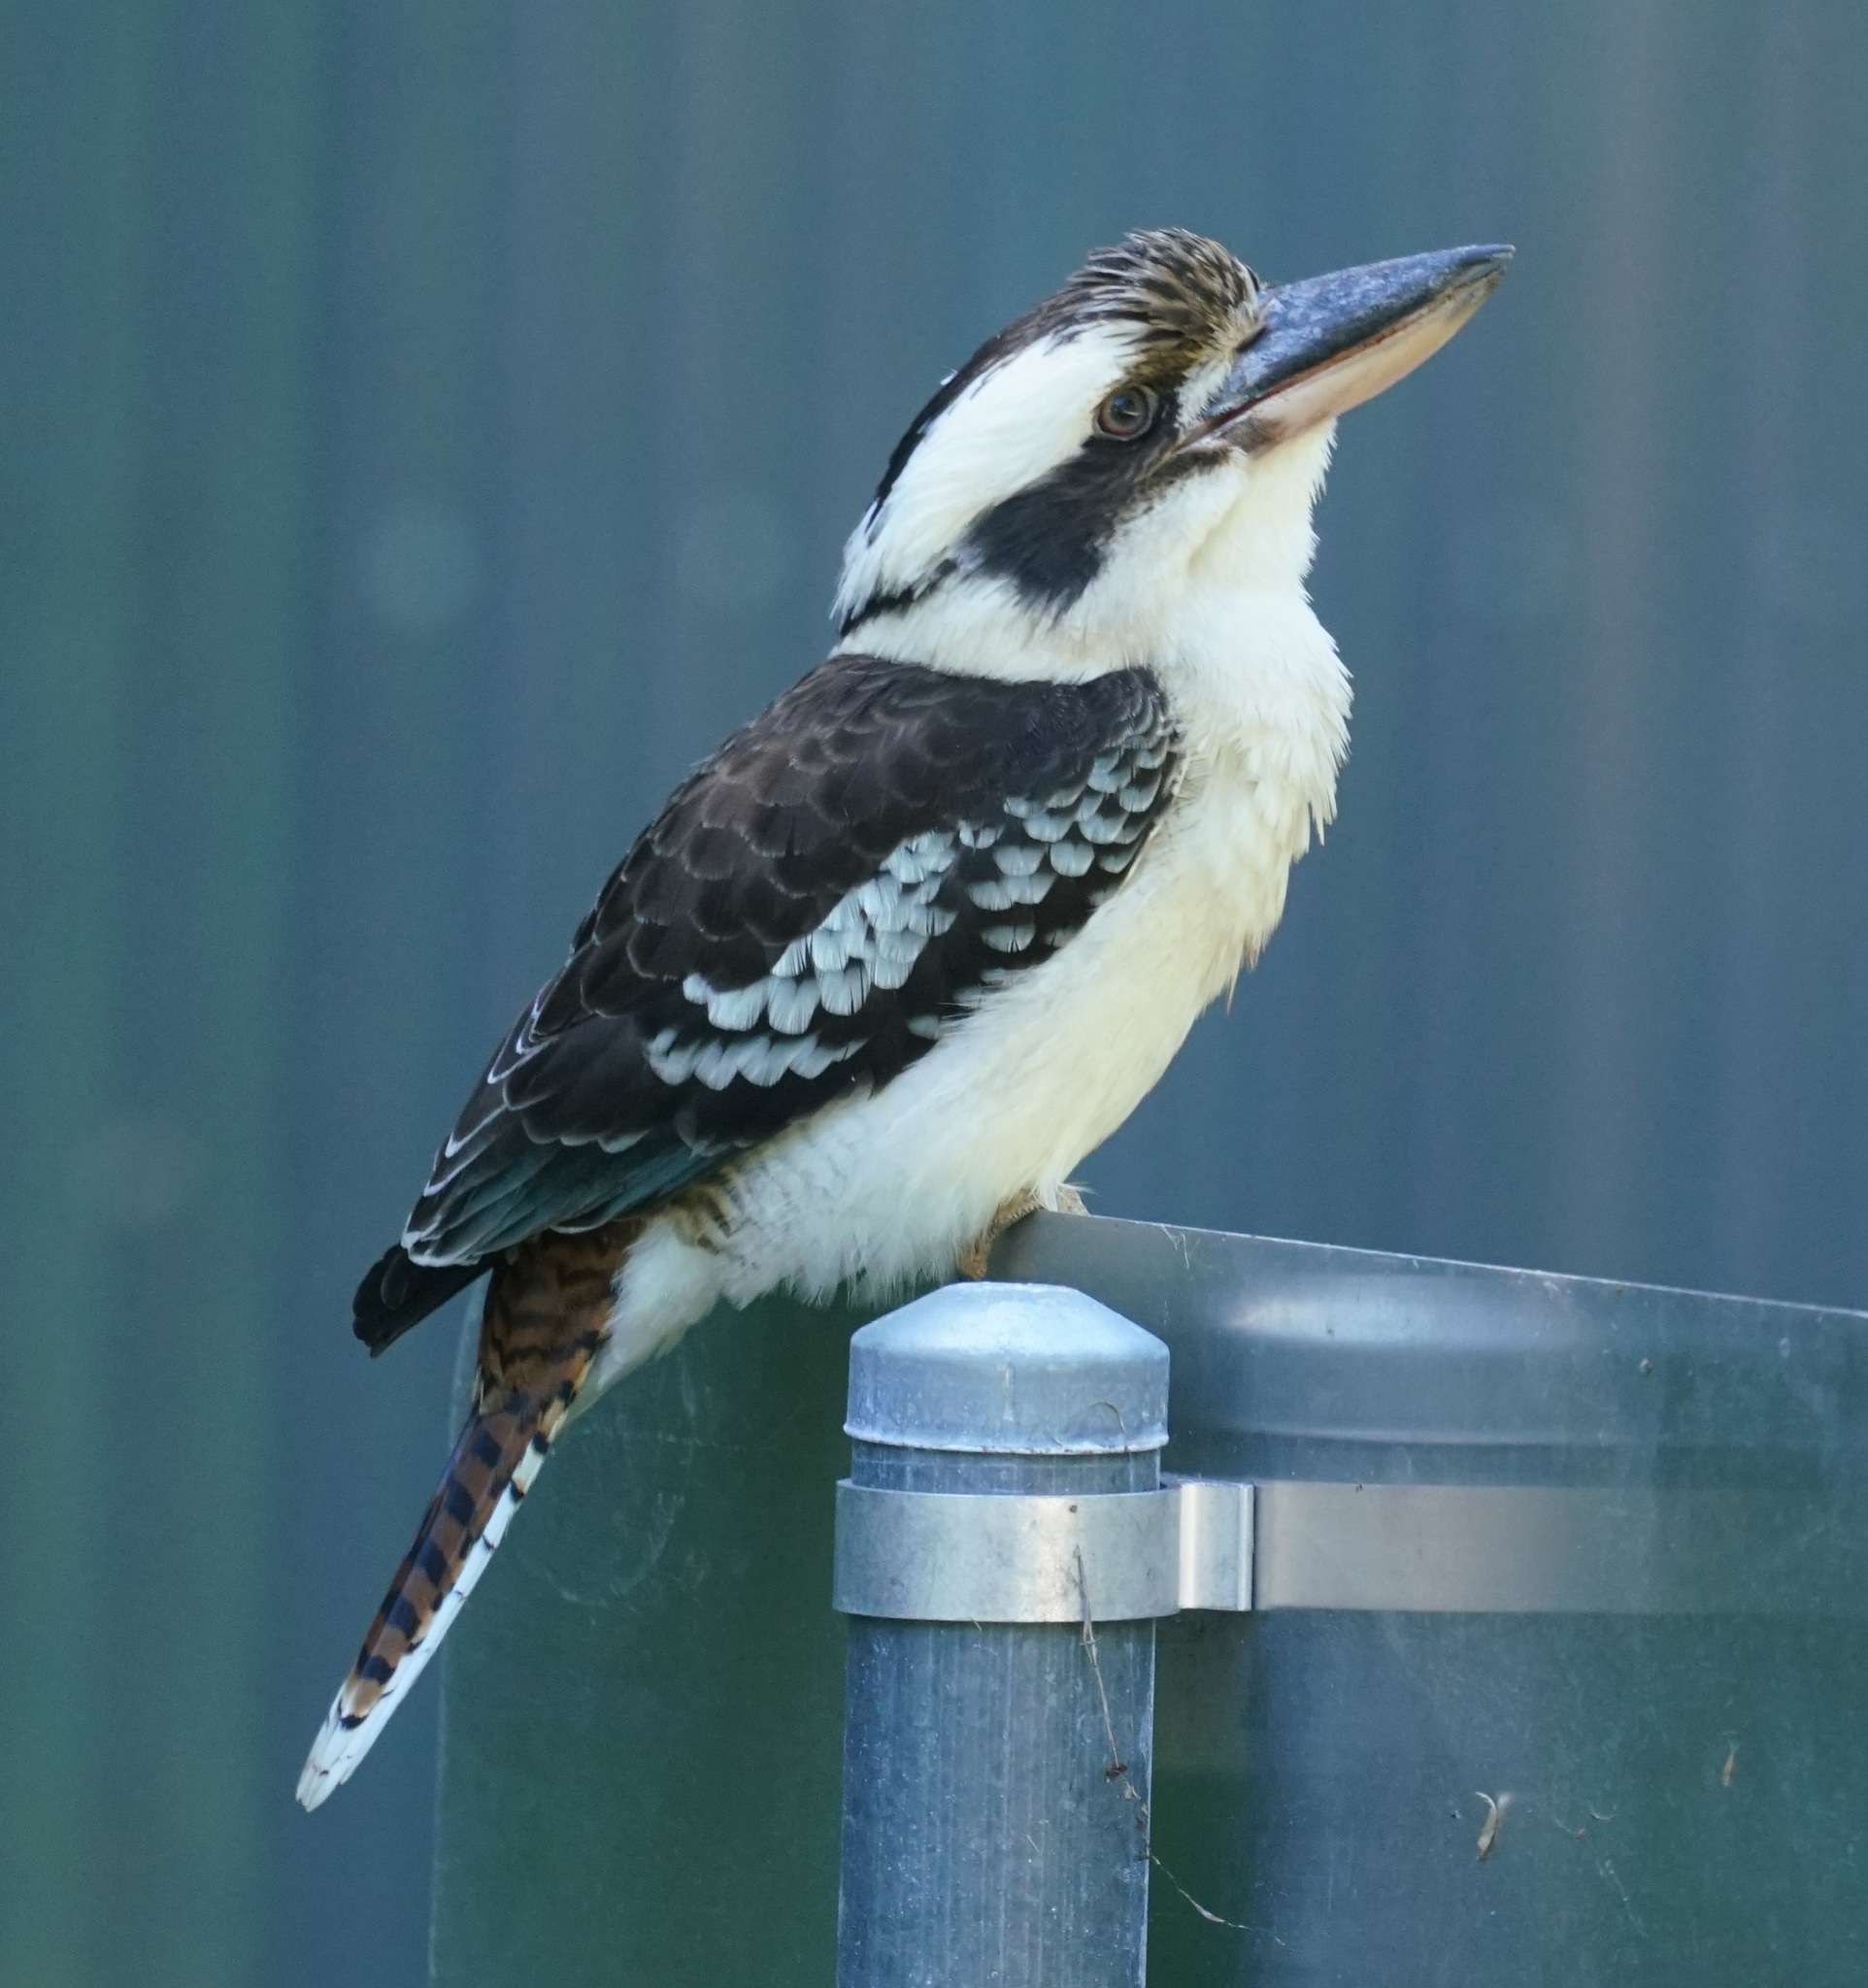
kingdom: Animalia
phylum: Chordata
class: Aves
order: Coraciiformes
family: Alcedinidae
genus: Dacelo
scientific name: Dacelo novaeguineae
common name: Laughing kookaburra
